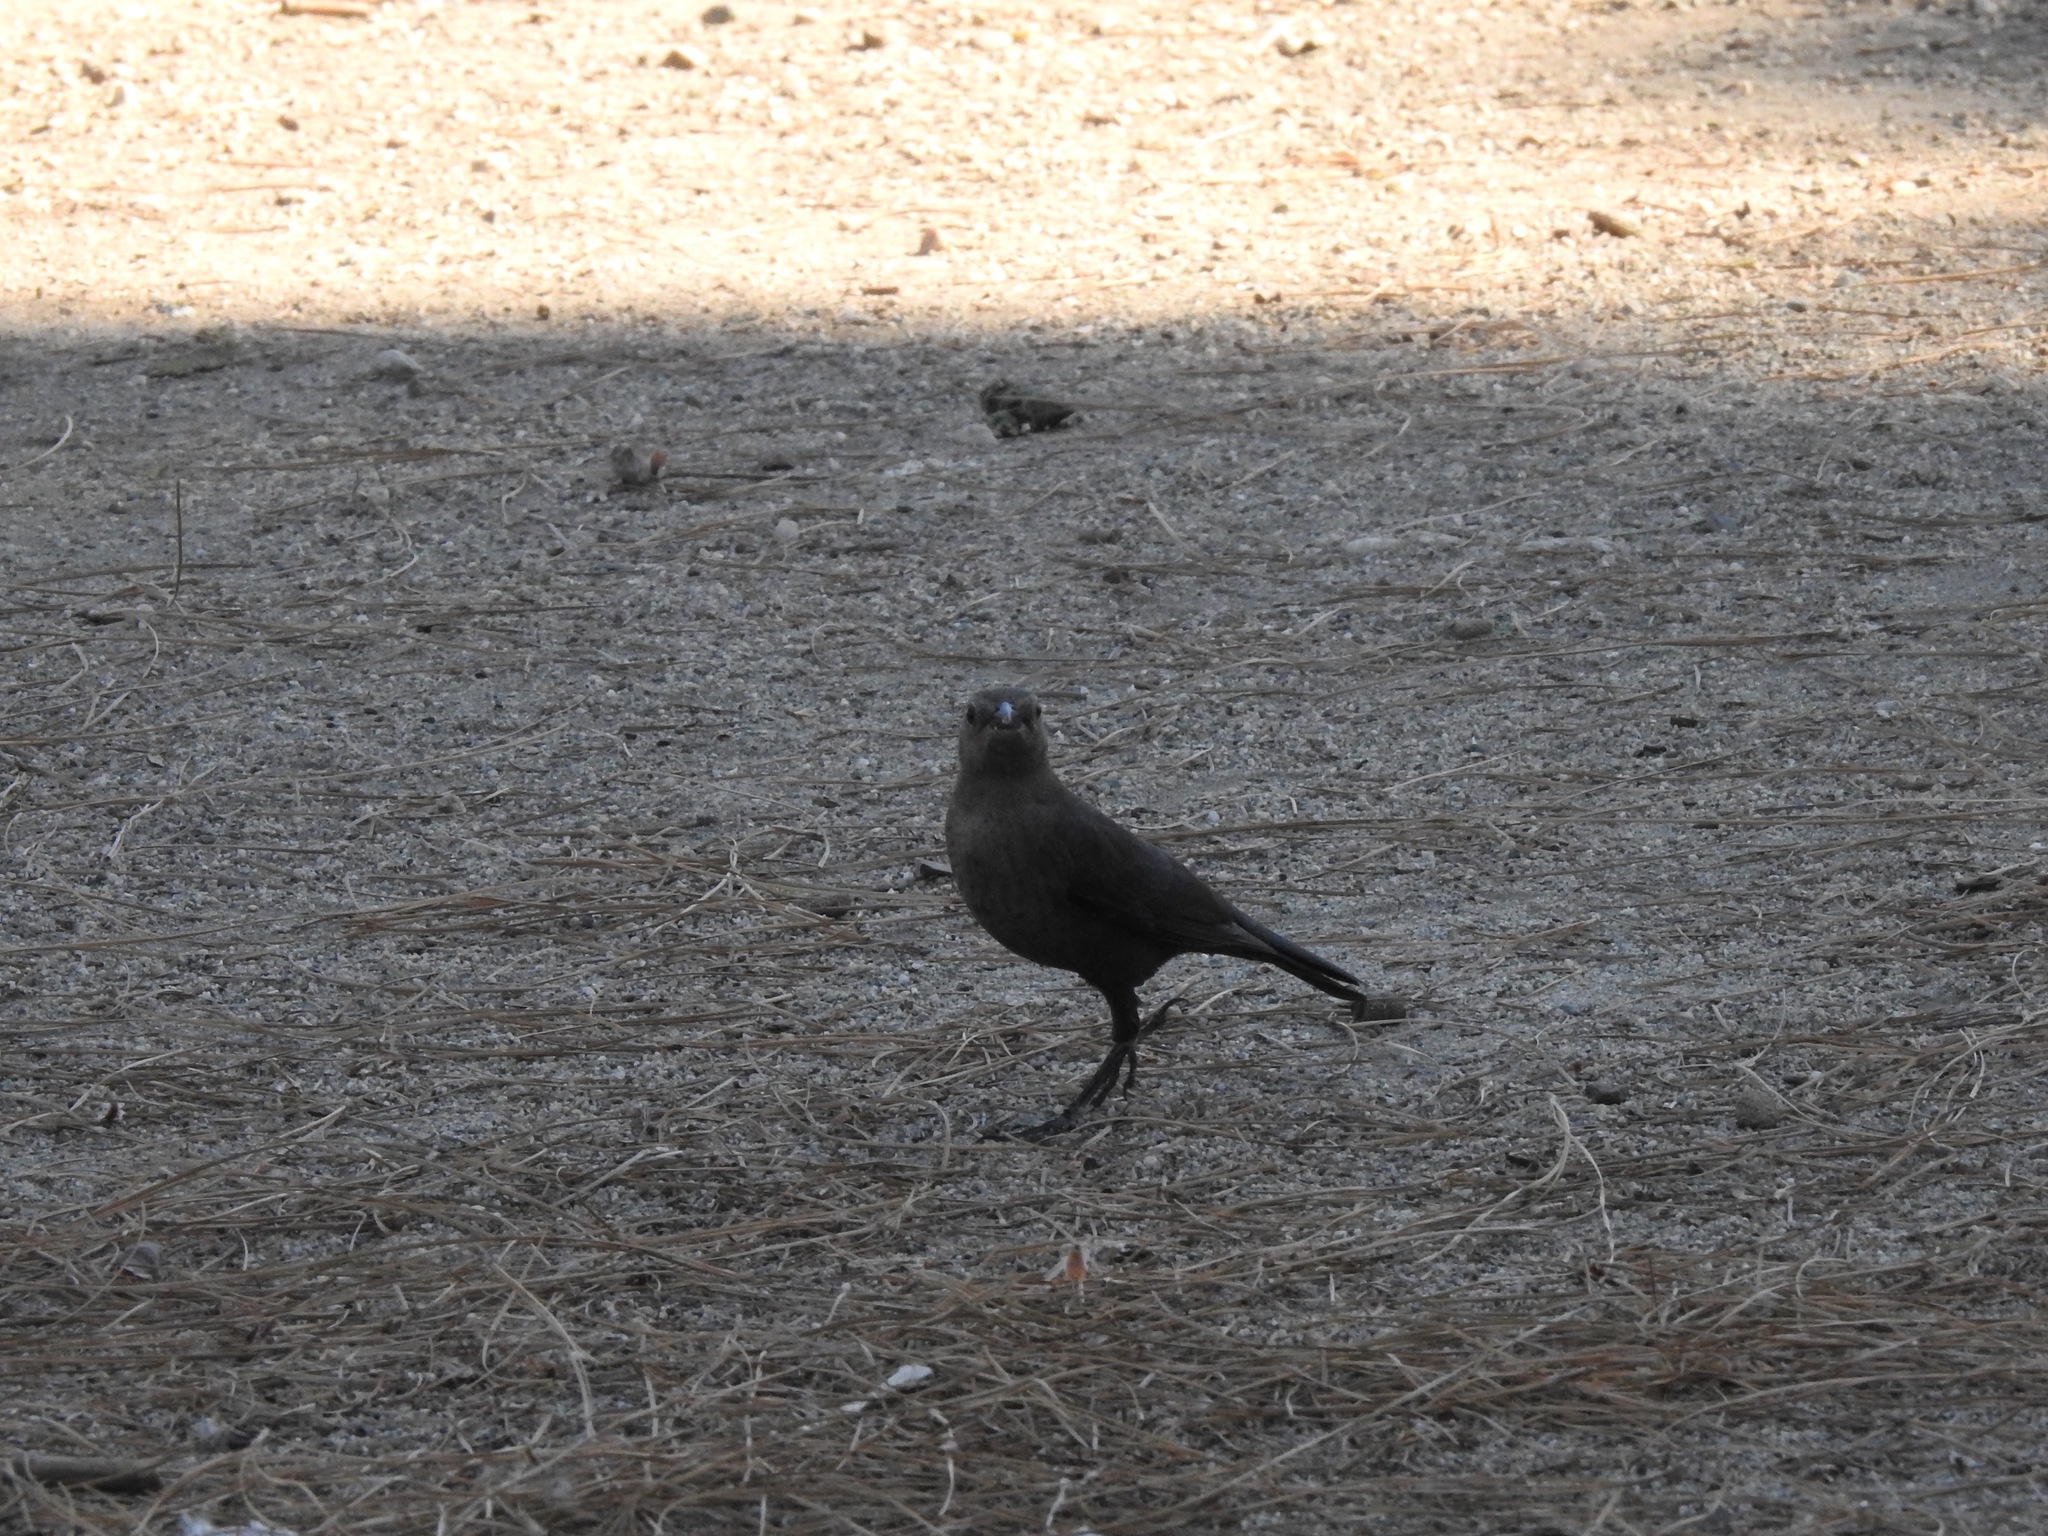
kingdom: Animalia
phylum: Chordata
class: Aves
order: Passeriformes
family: Icteridae
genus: Euphagus
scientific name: Euphagus cyanocephalus
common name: Brewer's blackbird
